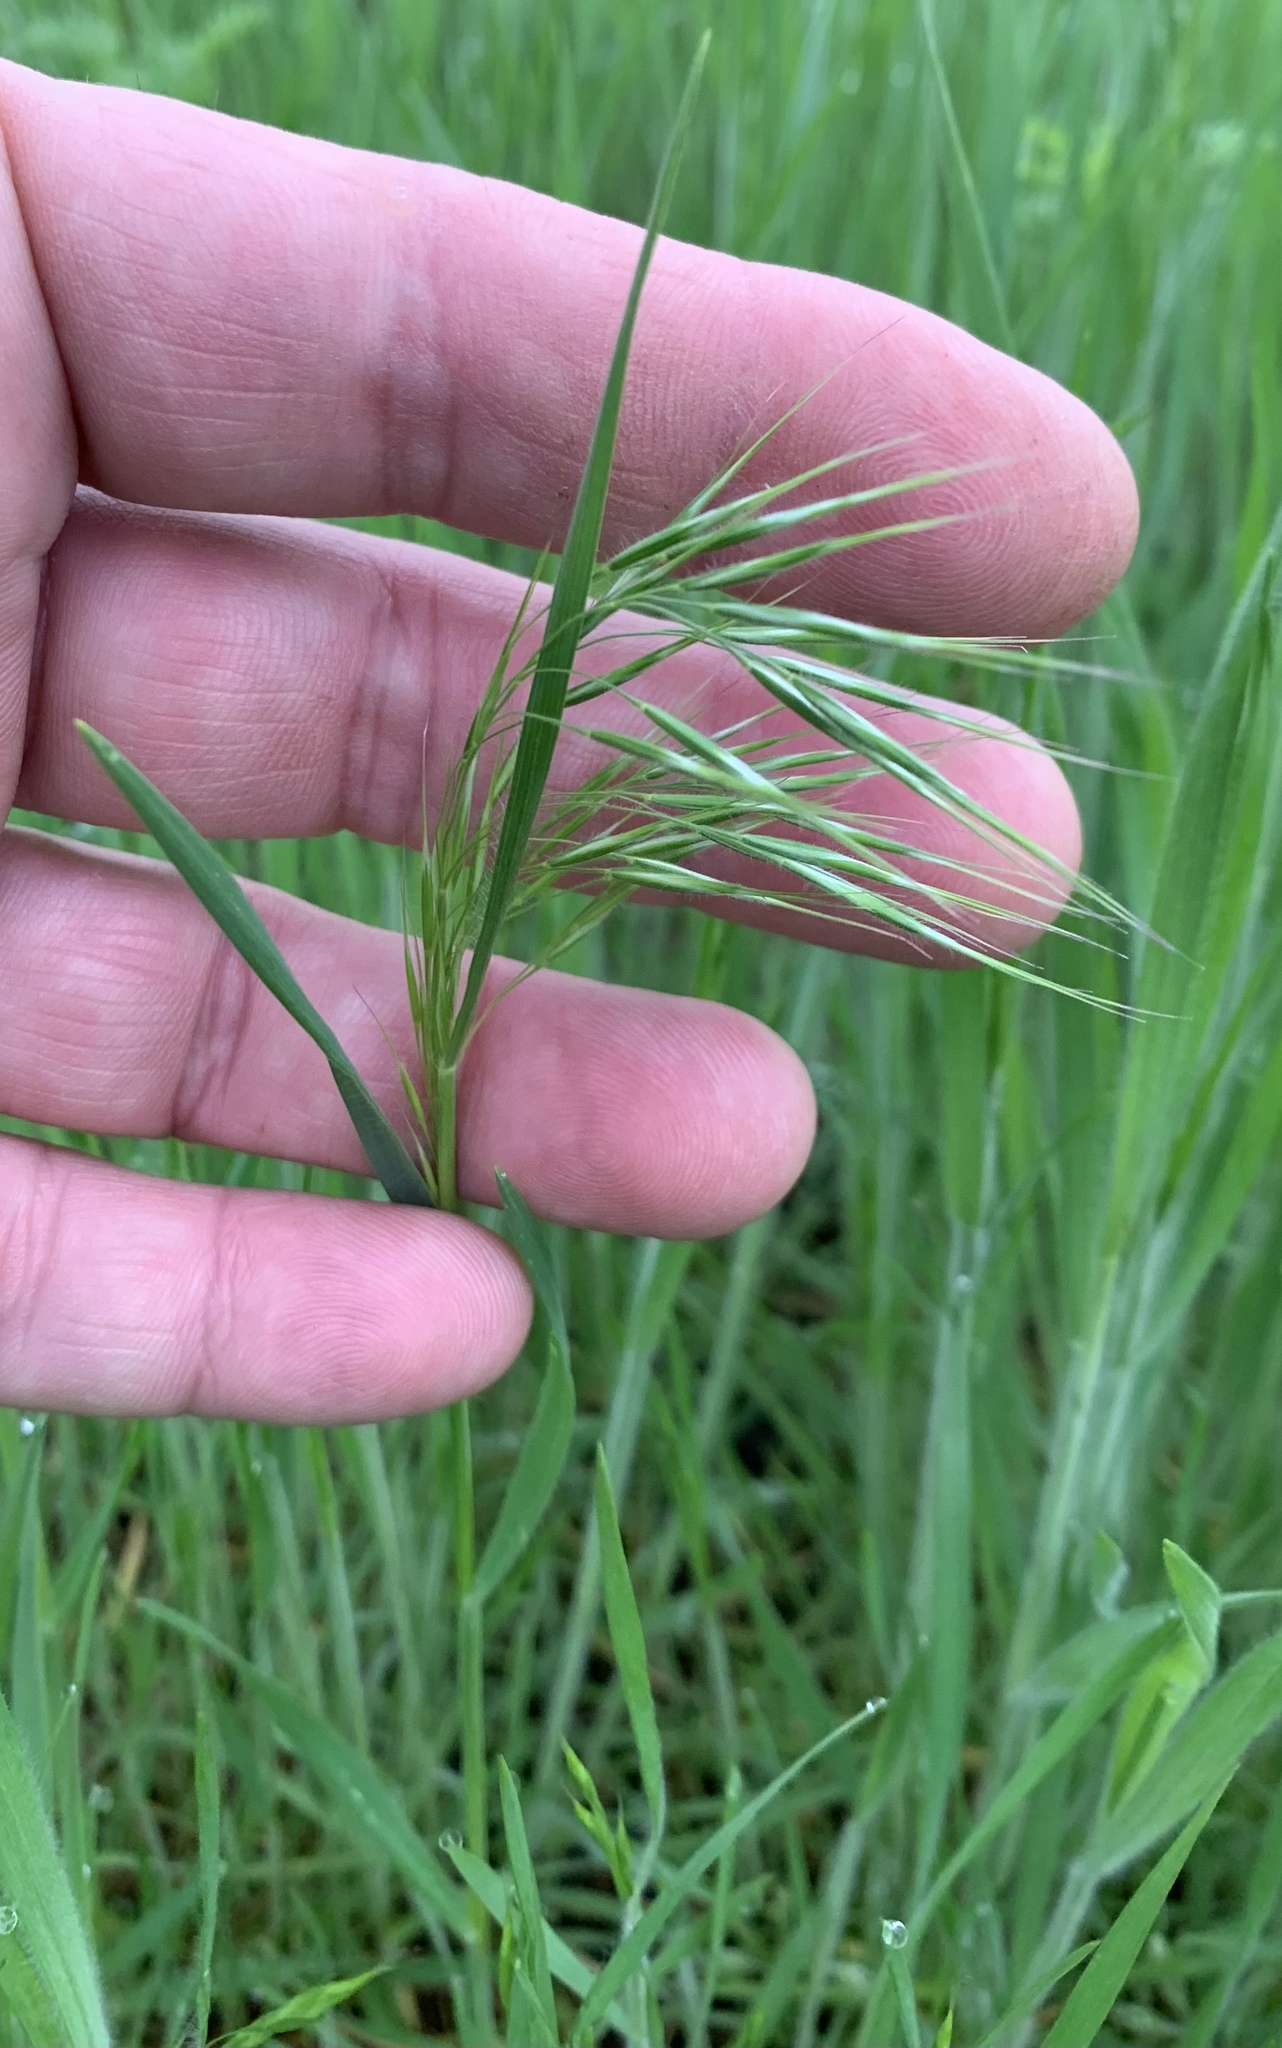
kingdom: Plantae
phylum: Tracheophyta
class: Liliopsida
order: Poales
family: Poaceae
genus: Bromus
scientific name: Bromus tectorum
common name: Cheatgrass
